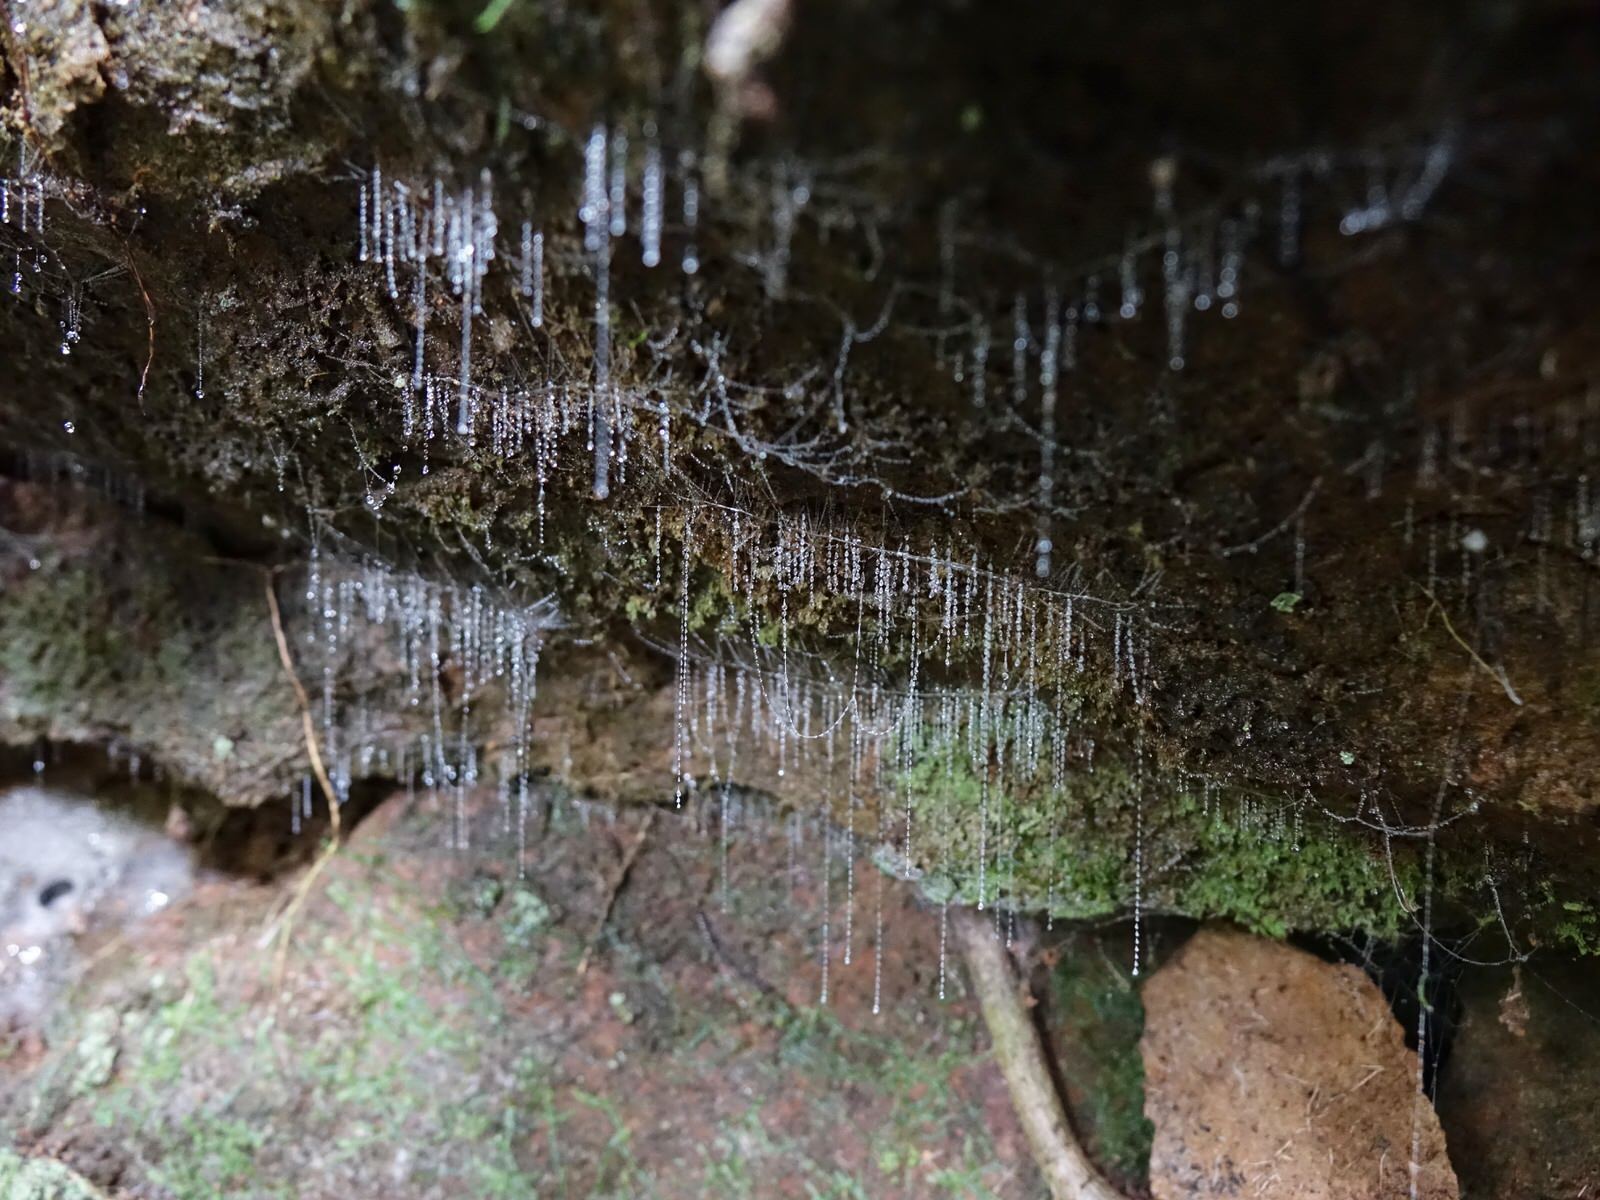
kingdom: Animalia
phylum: Arthropoda
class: Insecta
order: Diptera
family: Keroplatidae
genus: Arachnocampa
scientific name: Arachnocampa luminosa
